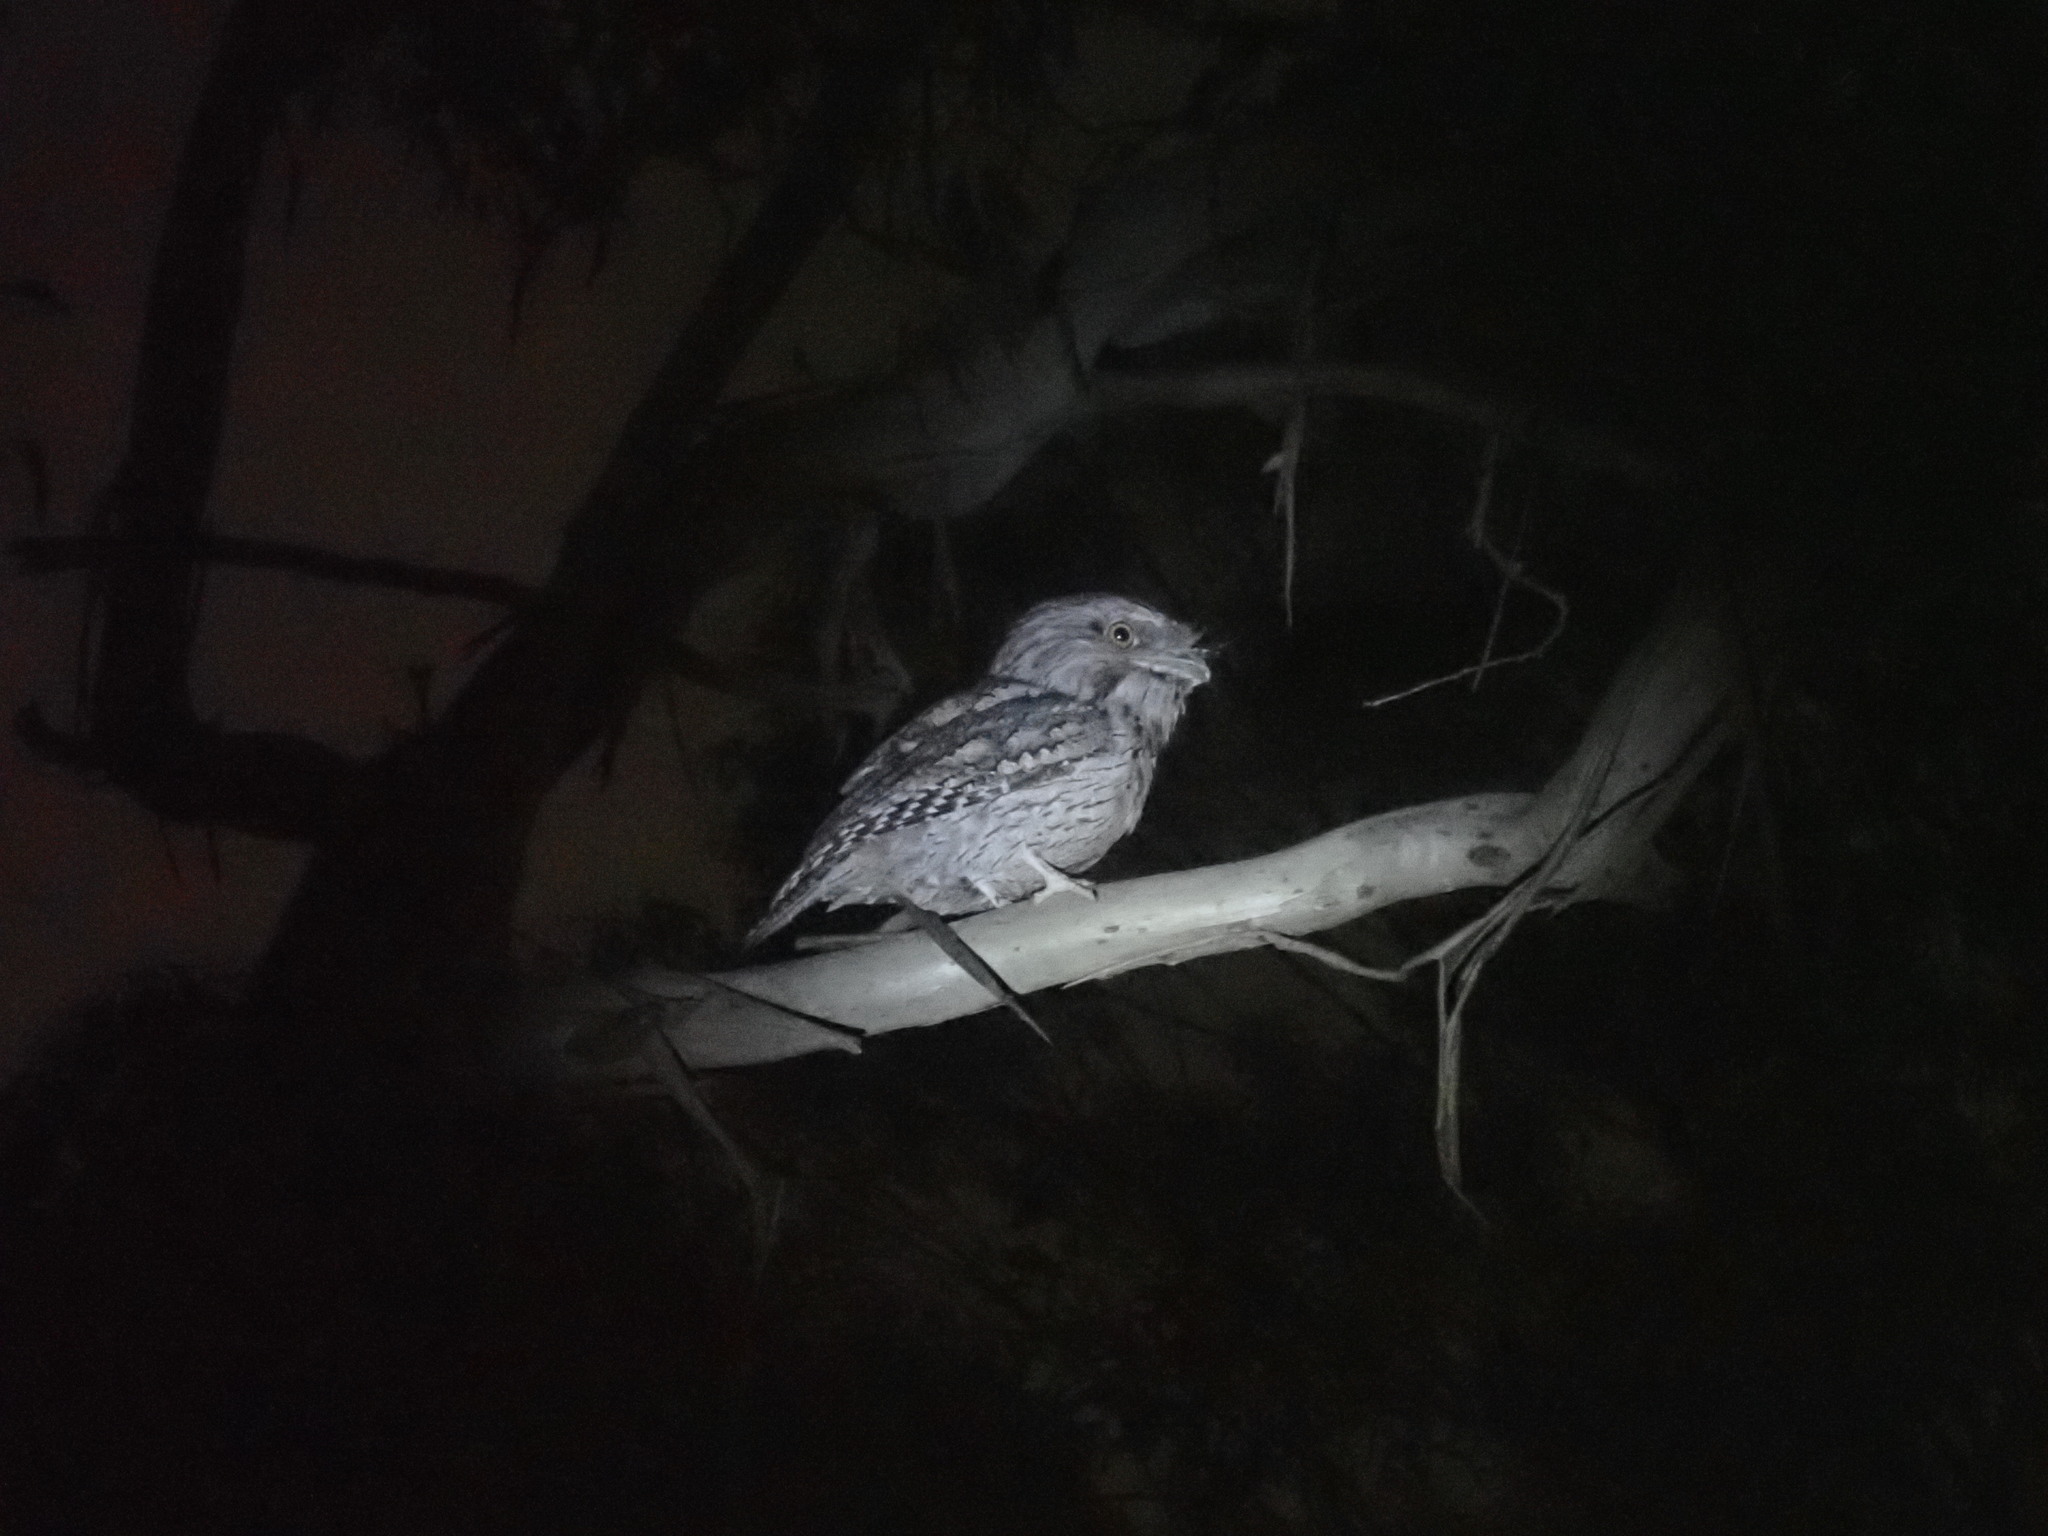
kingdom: Animalia
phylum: Chordata
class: Aves
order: Caprimulgiformes
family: Podargidae
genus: Podargus
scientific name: Podargus strigoides
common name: Tawny frogmouth
